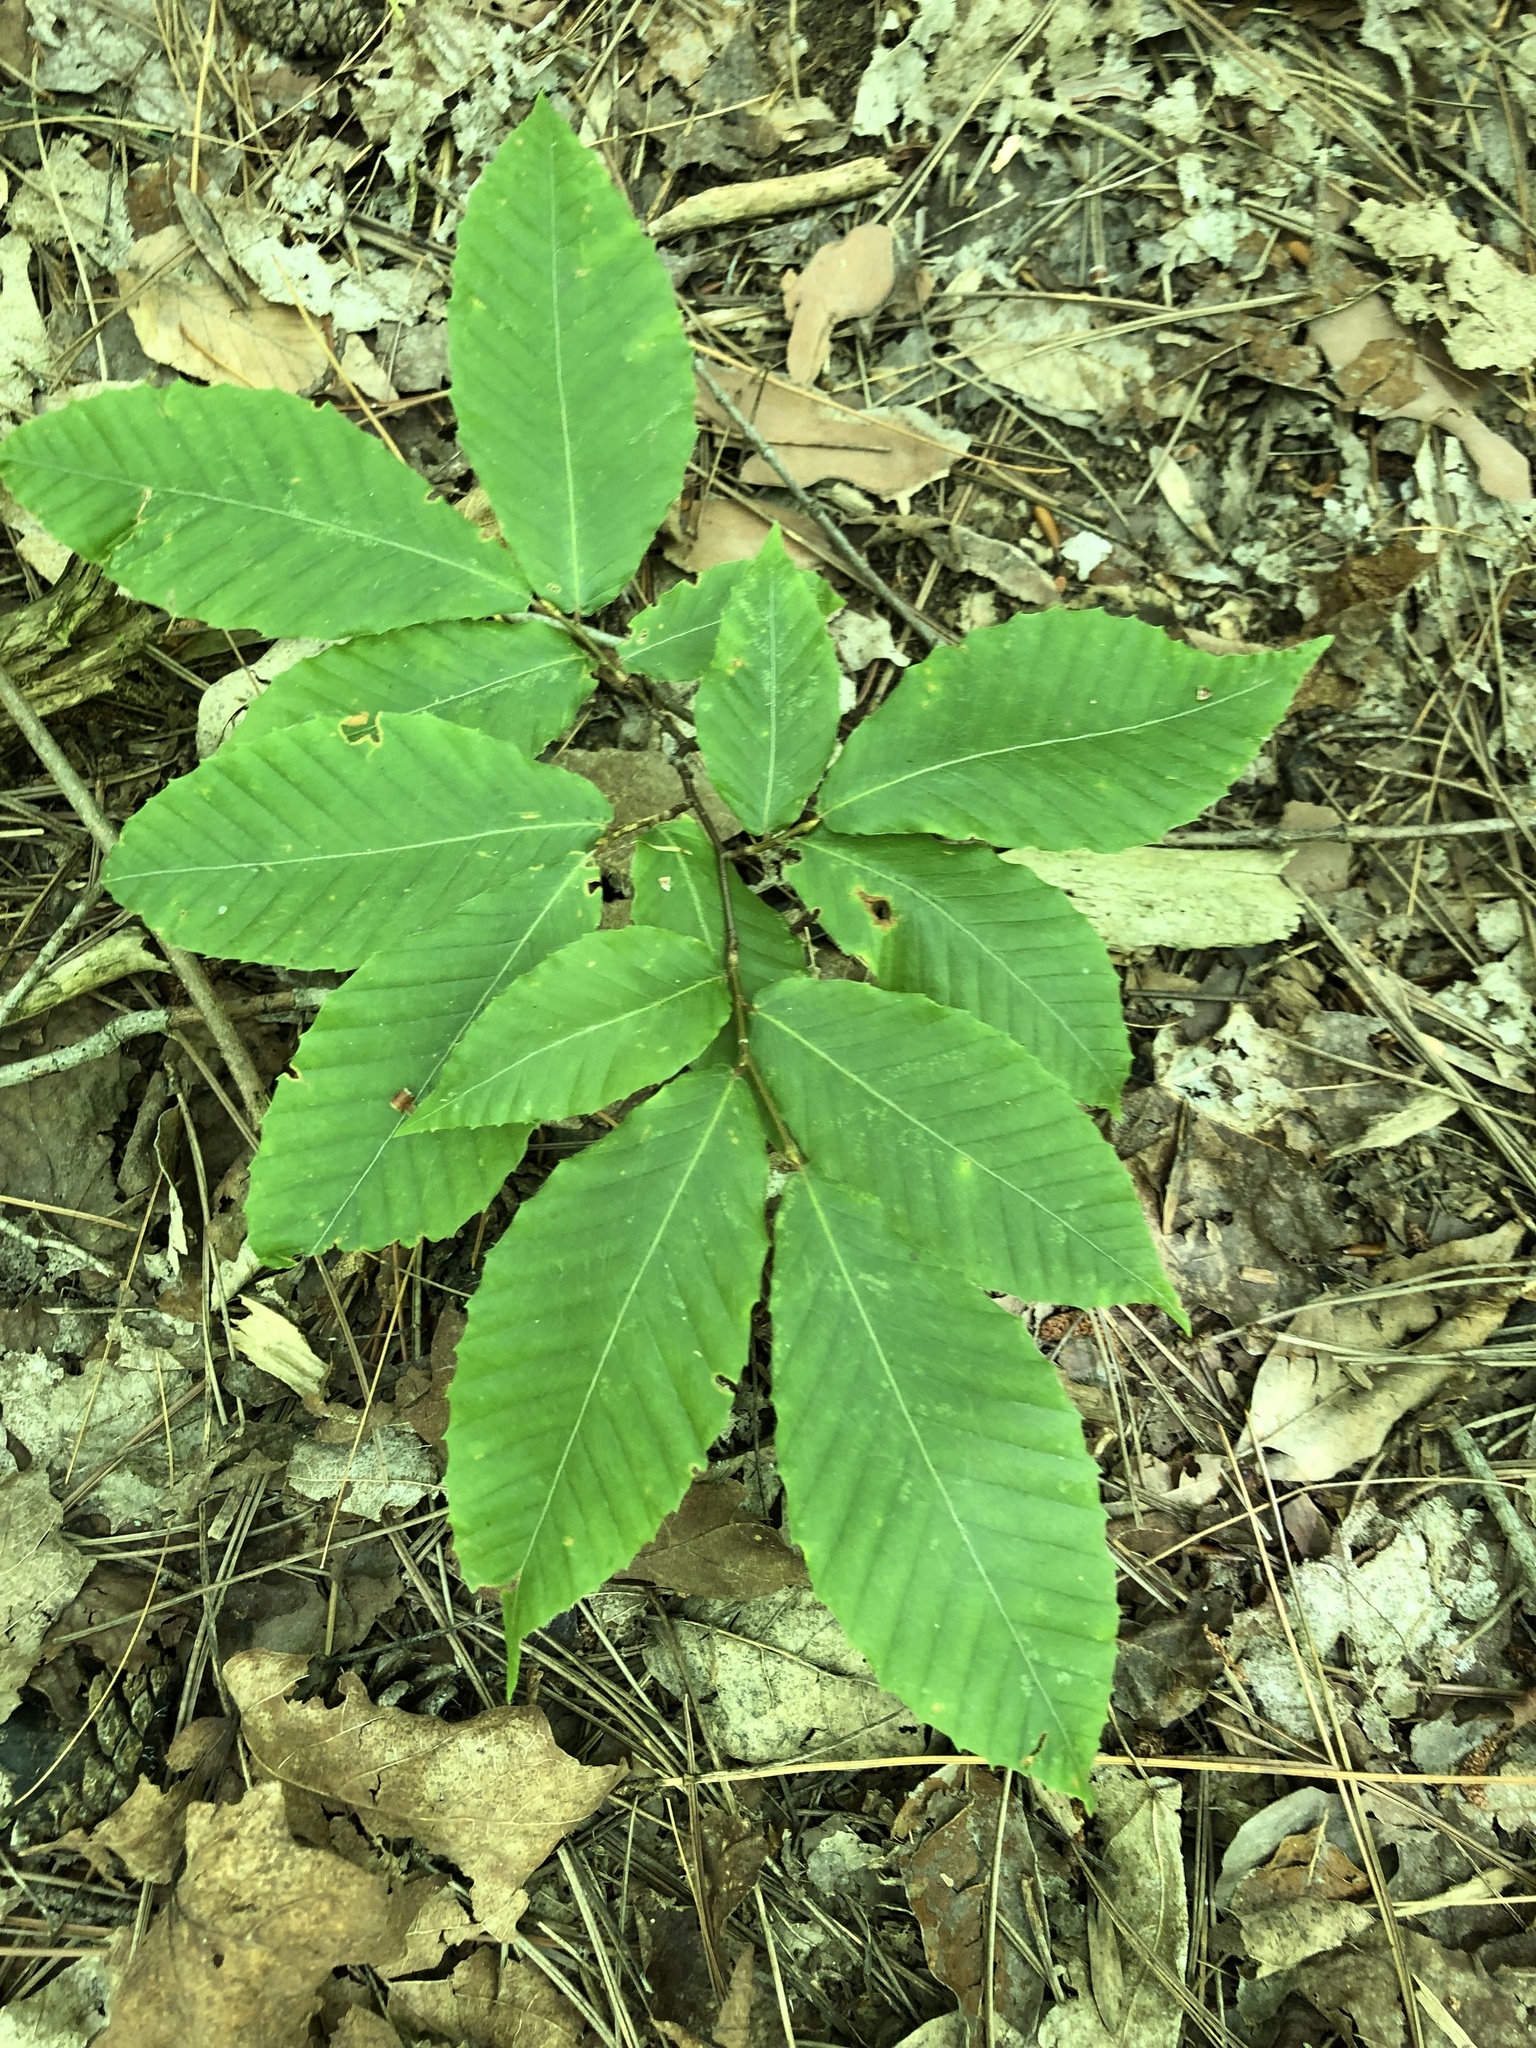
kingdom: Plantae
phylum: Tracheophyta
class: Magnoliopsida
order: Fagales
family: Fagaceae
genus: Fagus
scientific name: Fagus grandifolia
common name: American beech
